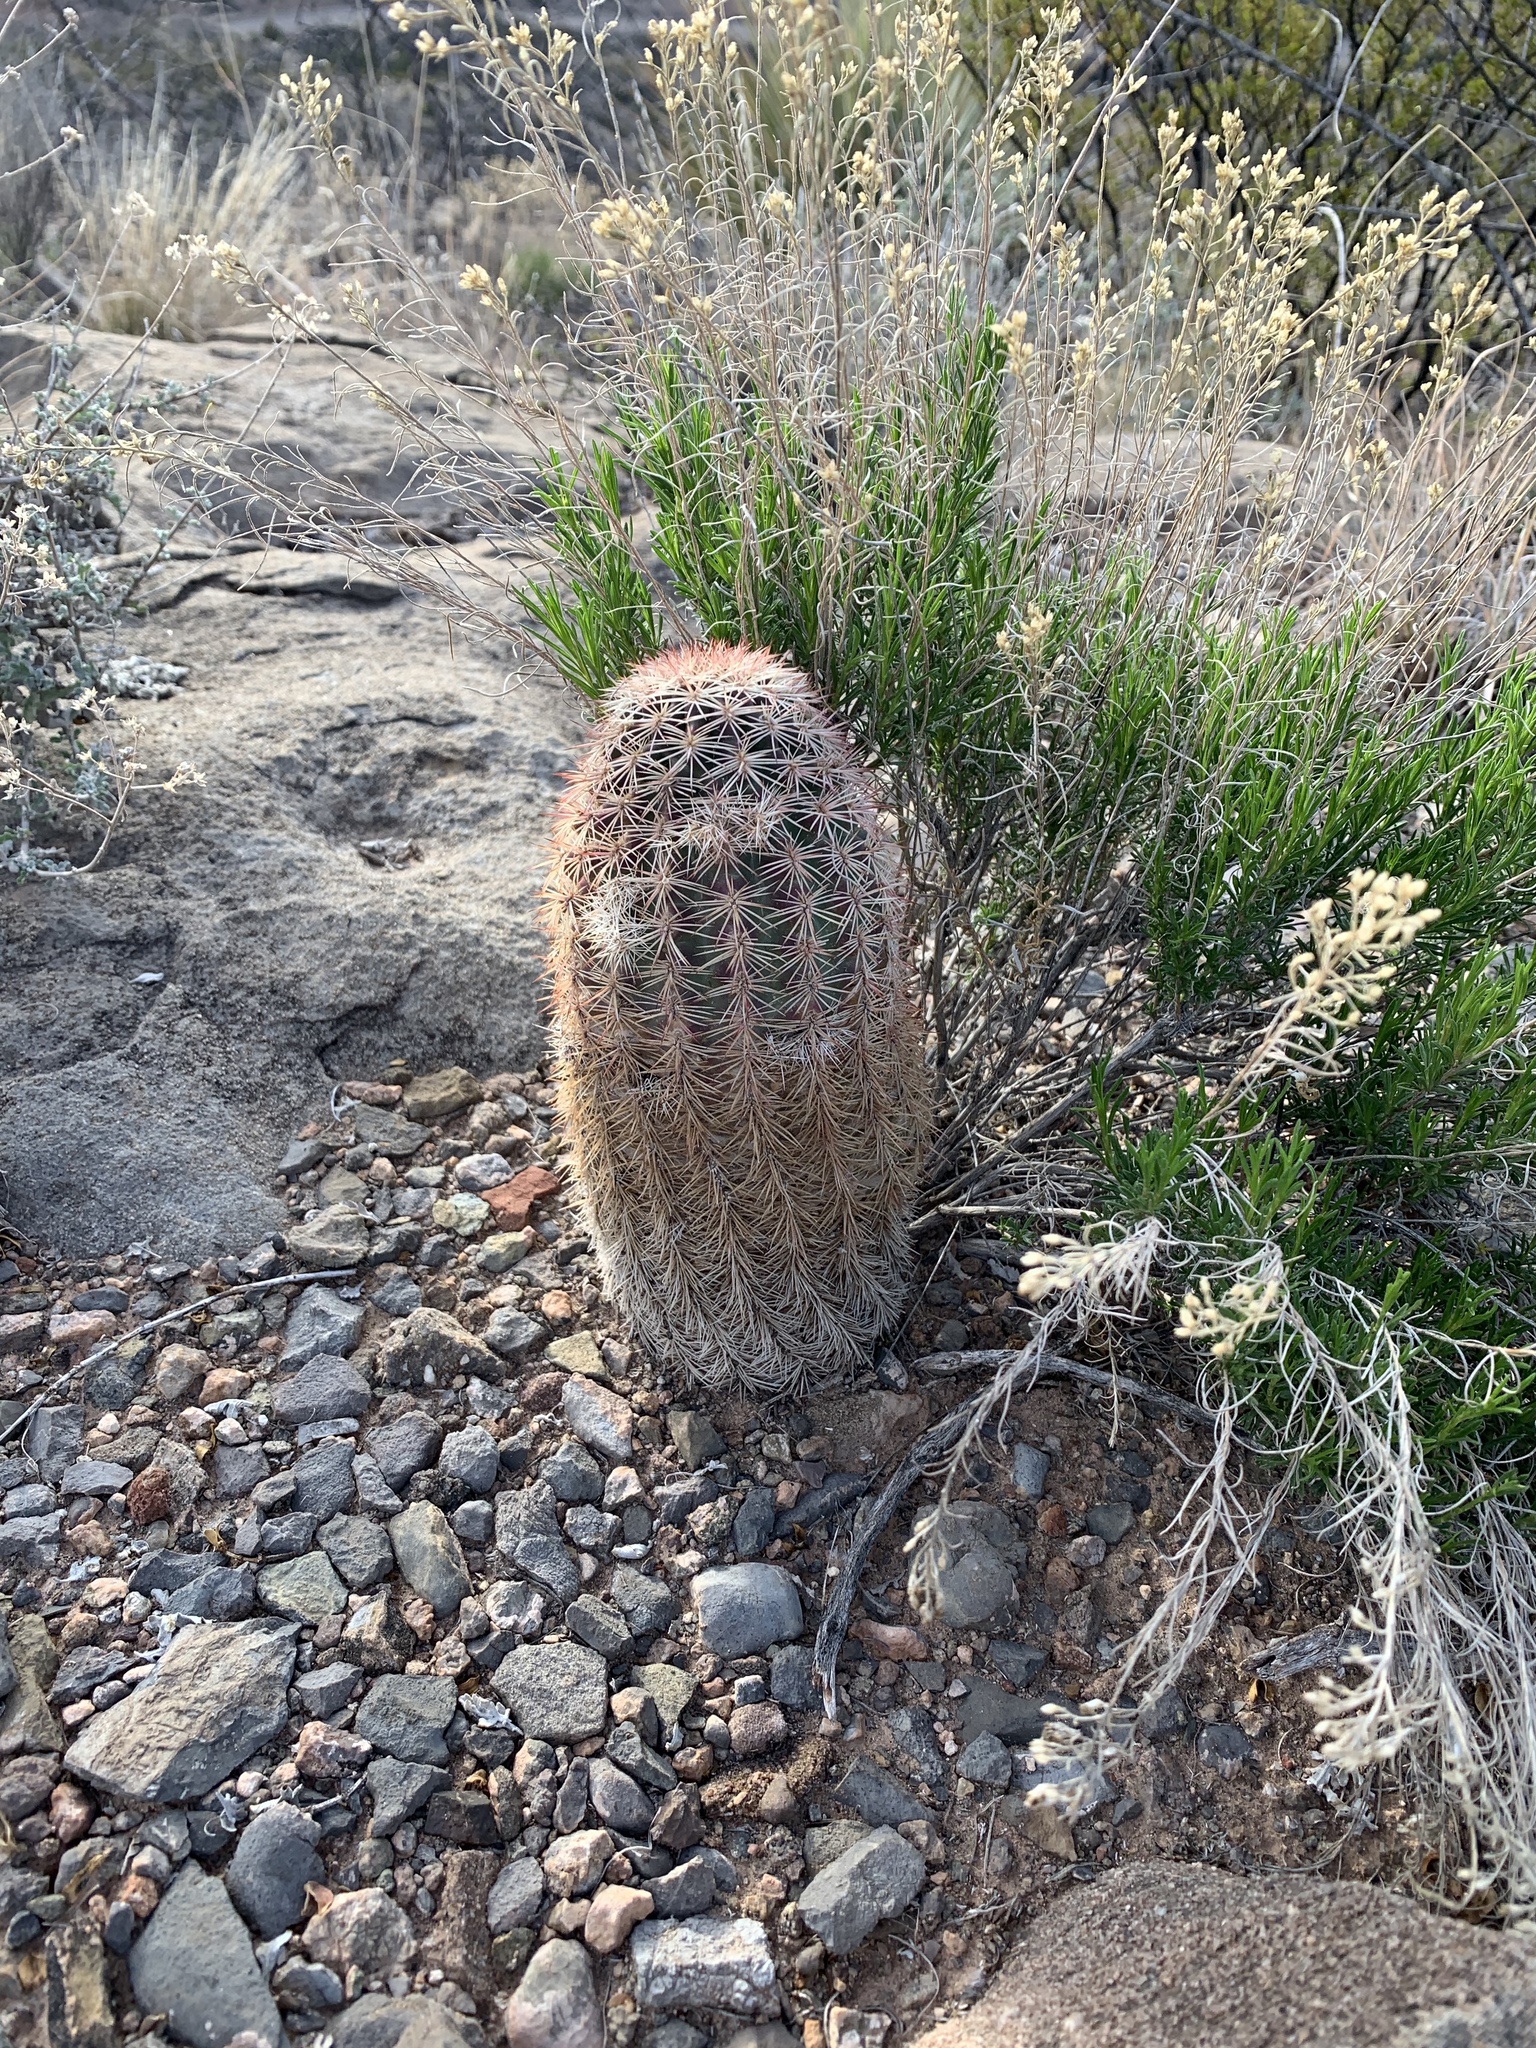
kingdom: Plantae
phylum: Tracheophyta
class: Magnoliopsida
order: Caryophyllales
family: Cactaceae
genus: Echinocereus
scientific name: Echinocereus dasyacanthus
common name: Spiny hedgehog cactus
